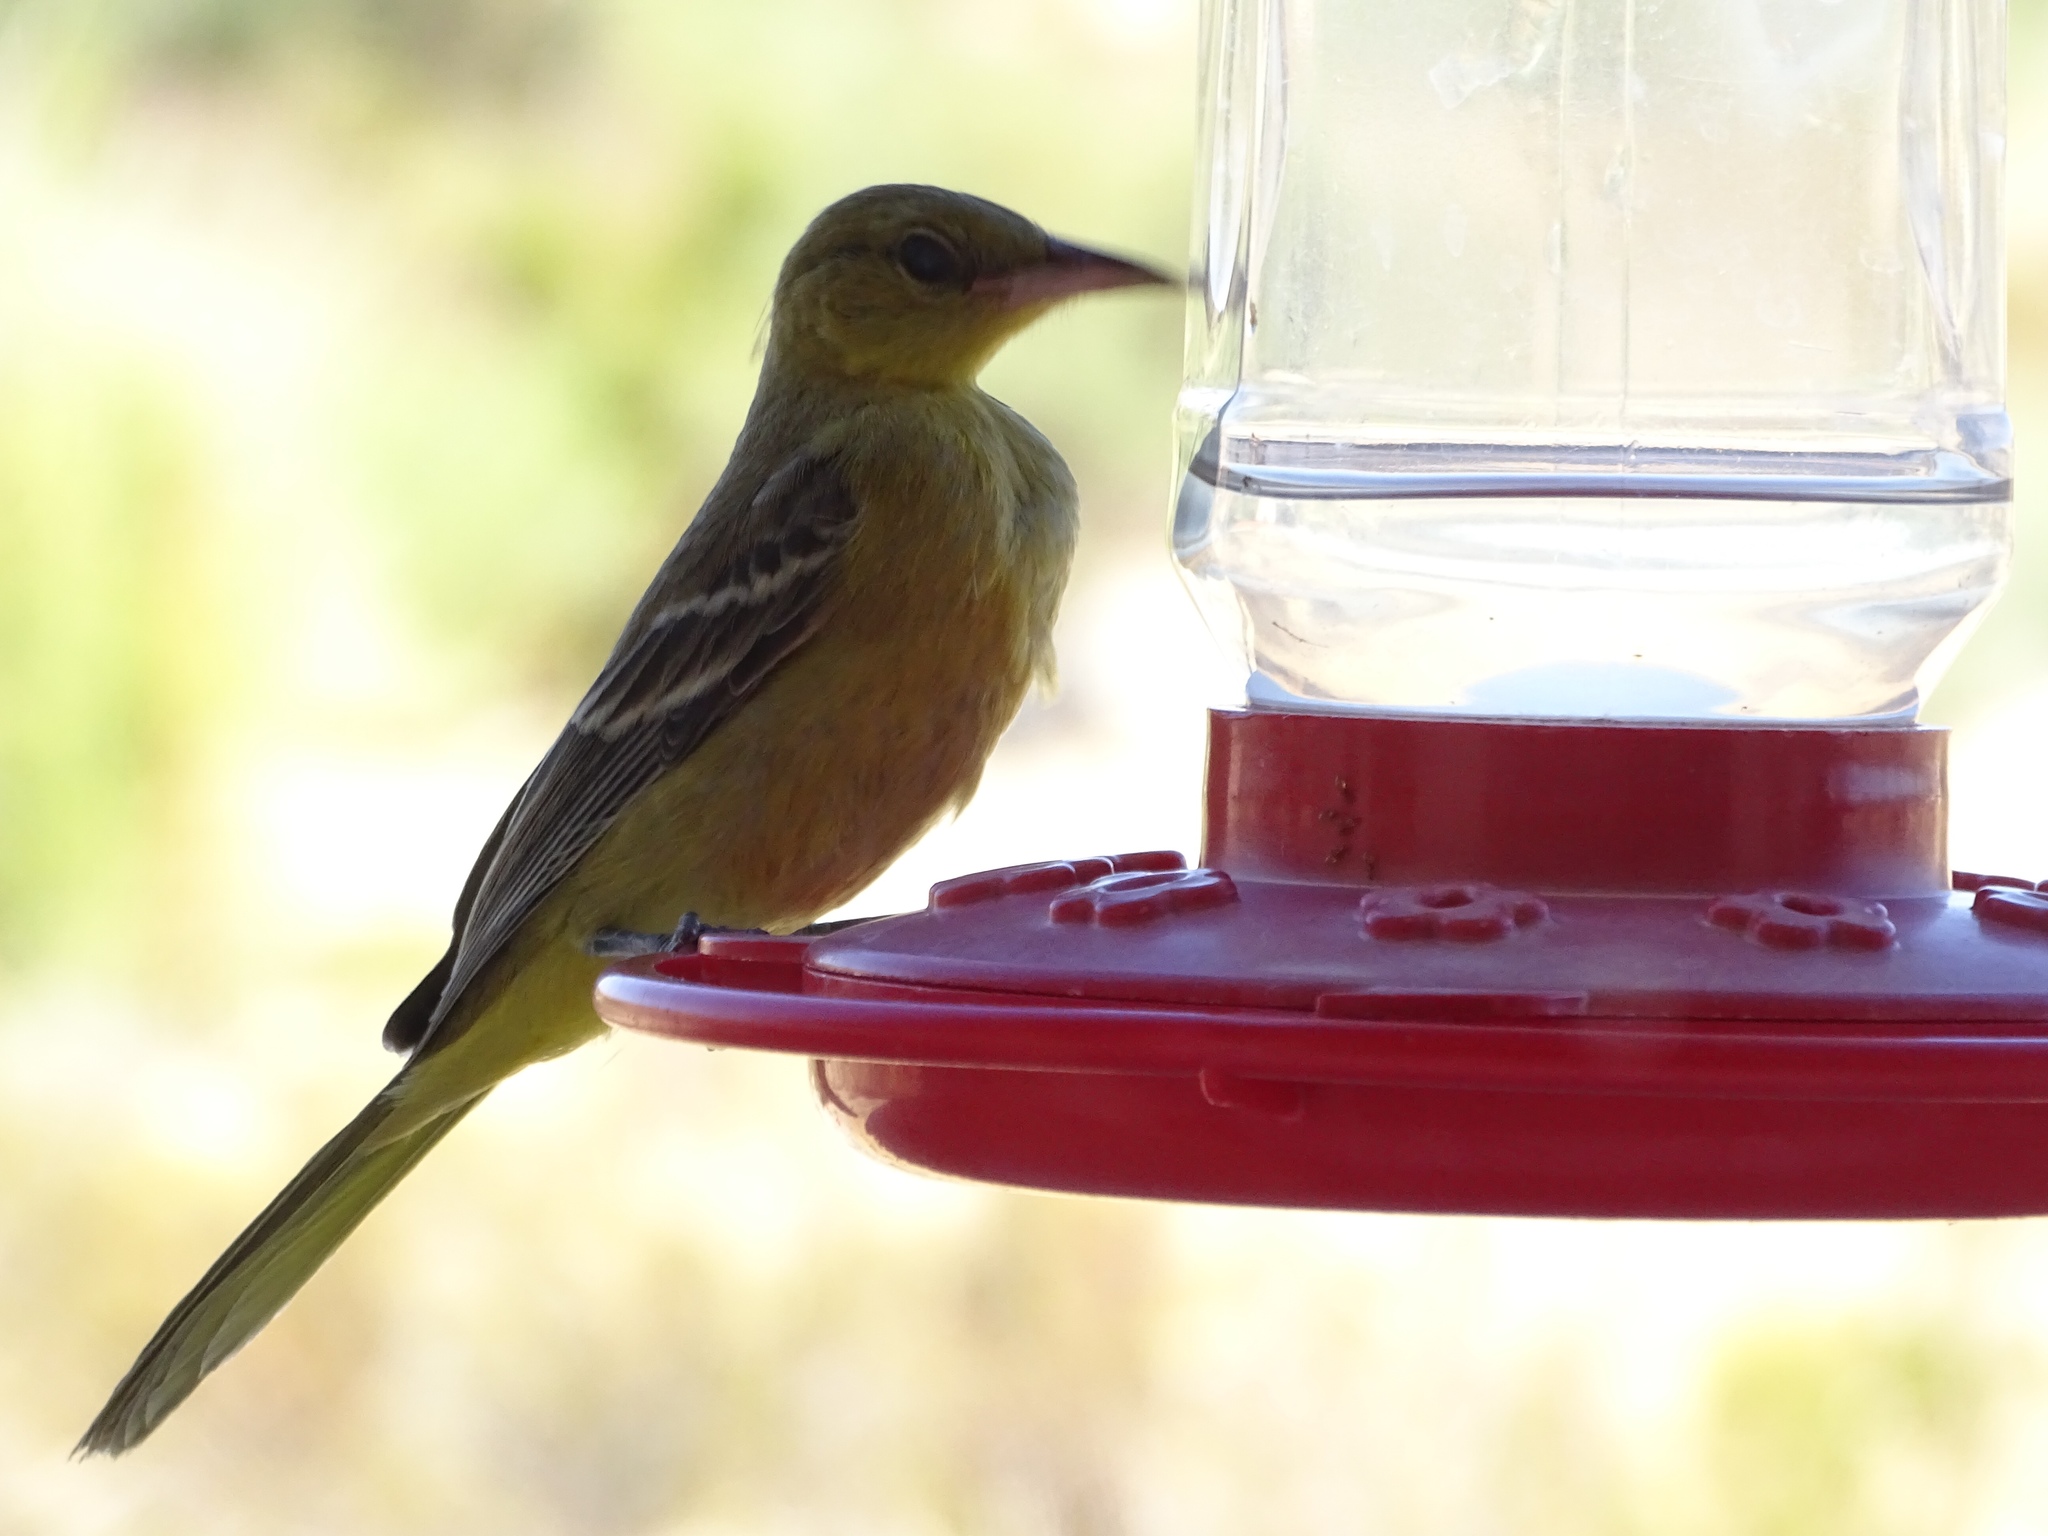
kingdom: Animalia
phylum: Chordata
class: Aves
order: Passeriformes
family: Icteridae
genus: Icterus
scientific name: Icterus cucullatus
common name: Hooded oriole
